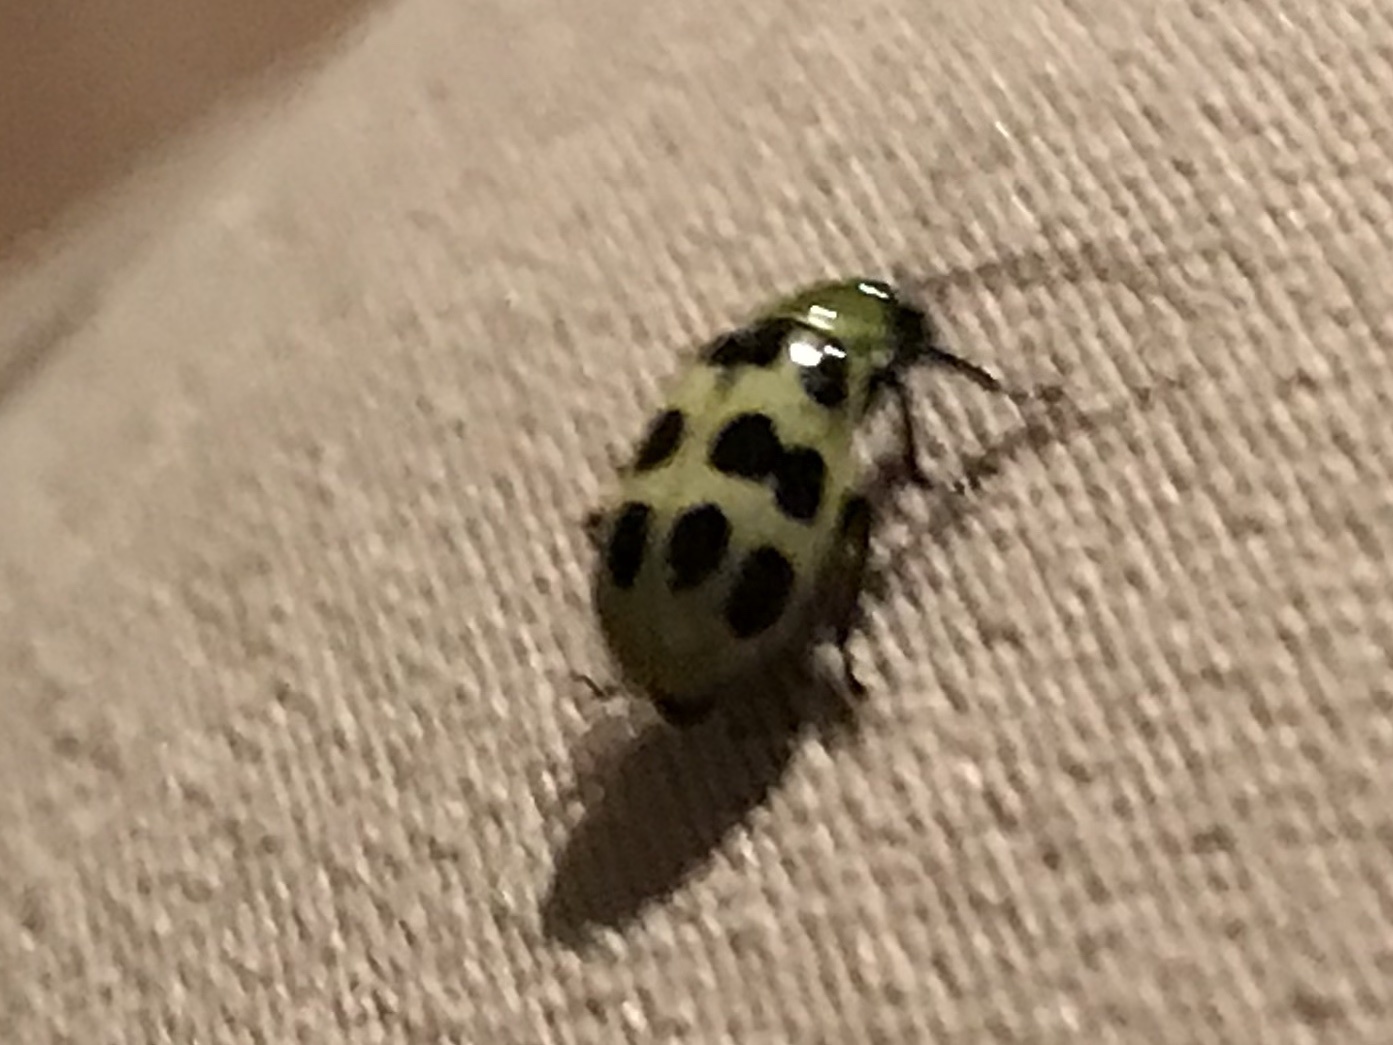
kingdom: Animalia
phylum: Arthropoda
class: Insecta
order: Coleoptera
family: Chrysomelidae
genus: Diabrotica
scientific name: Diabrotica undecimpunctata
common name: Spotted cucumber beetle
